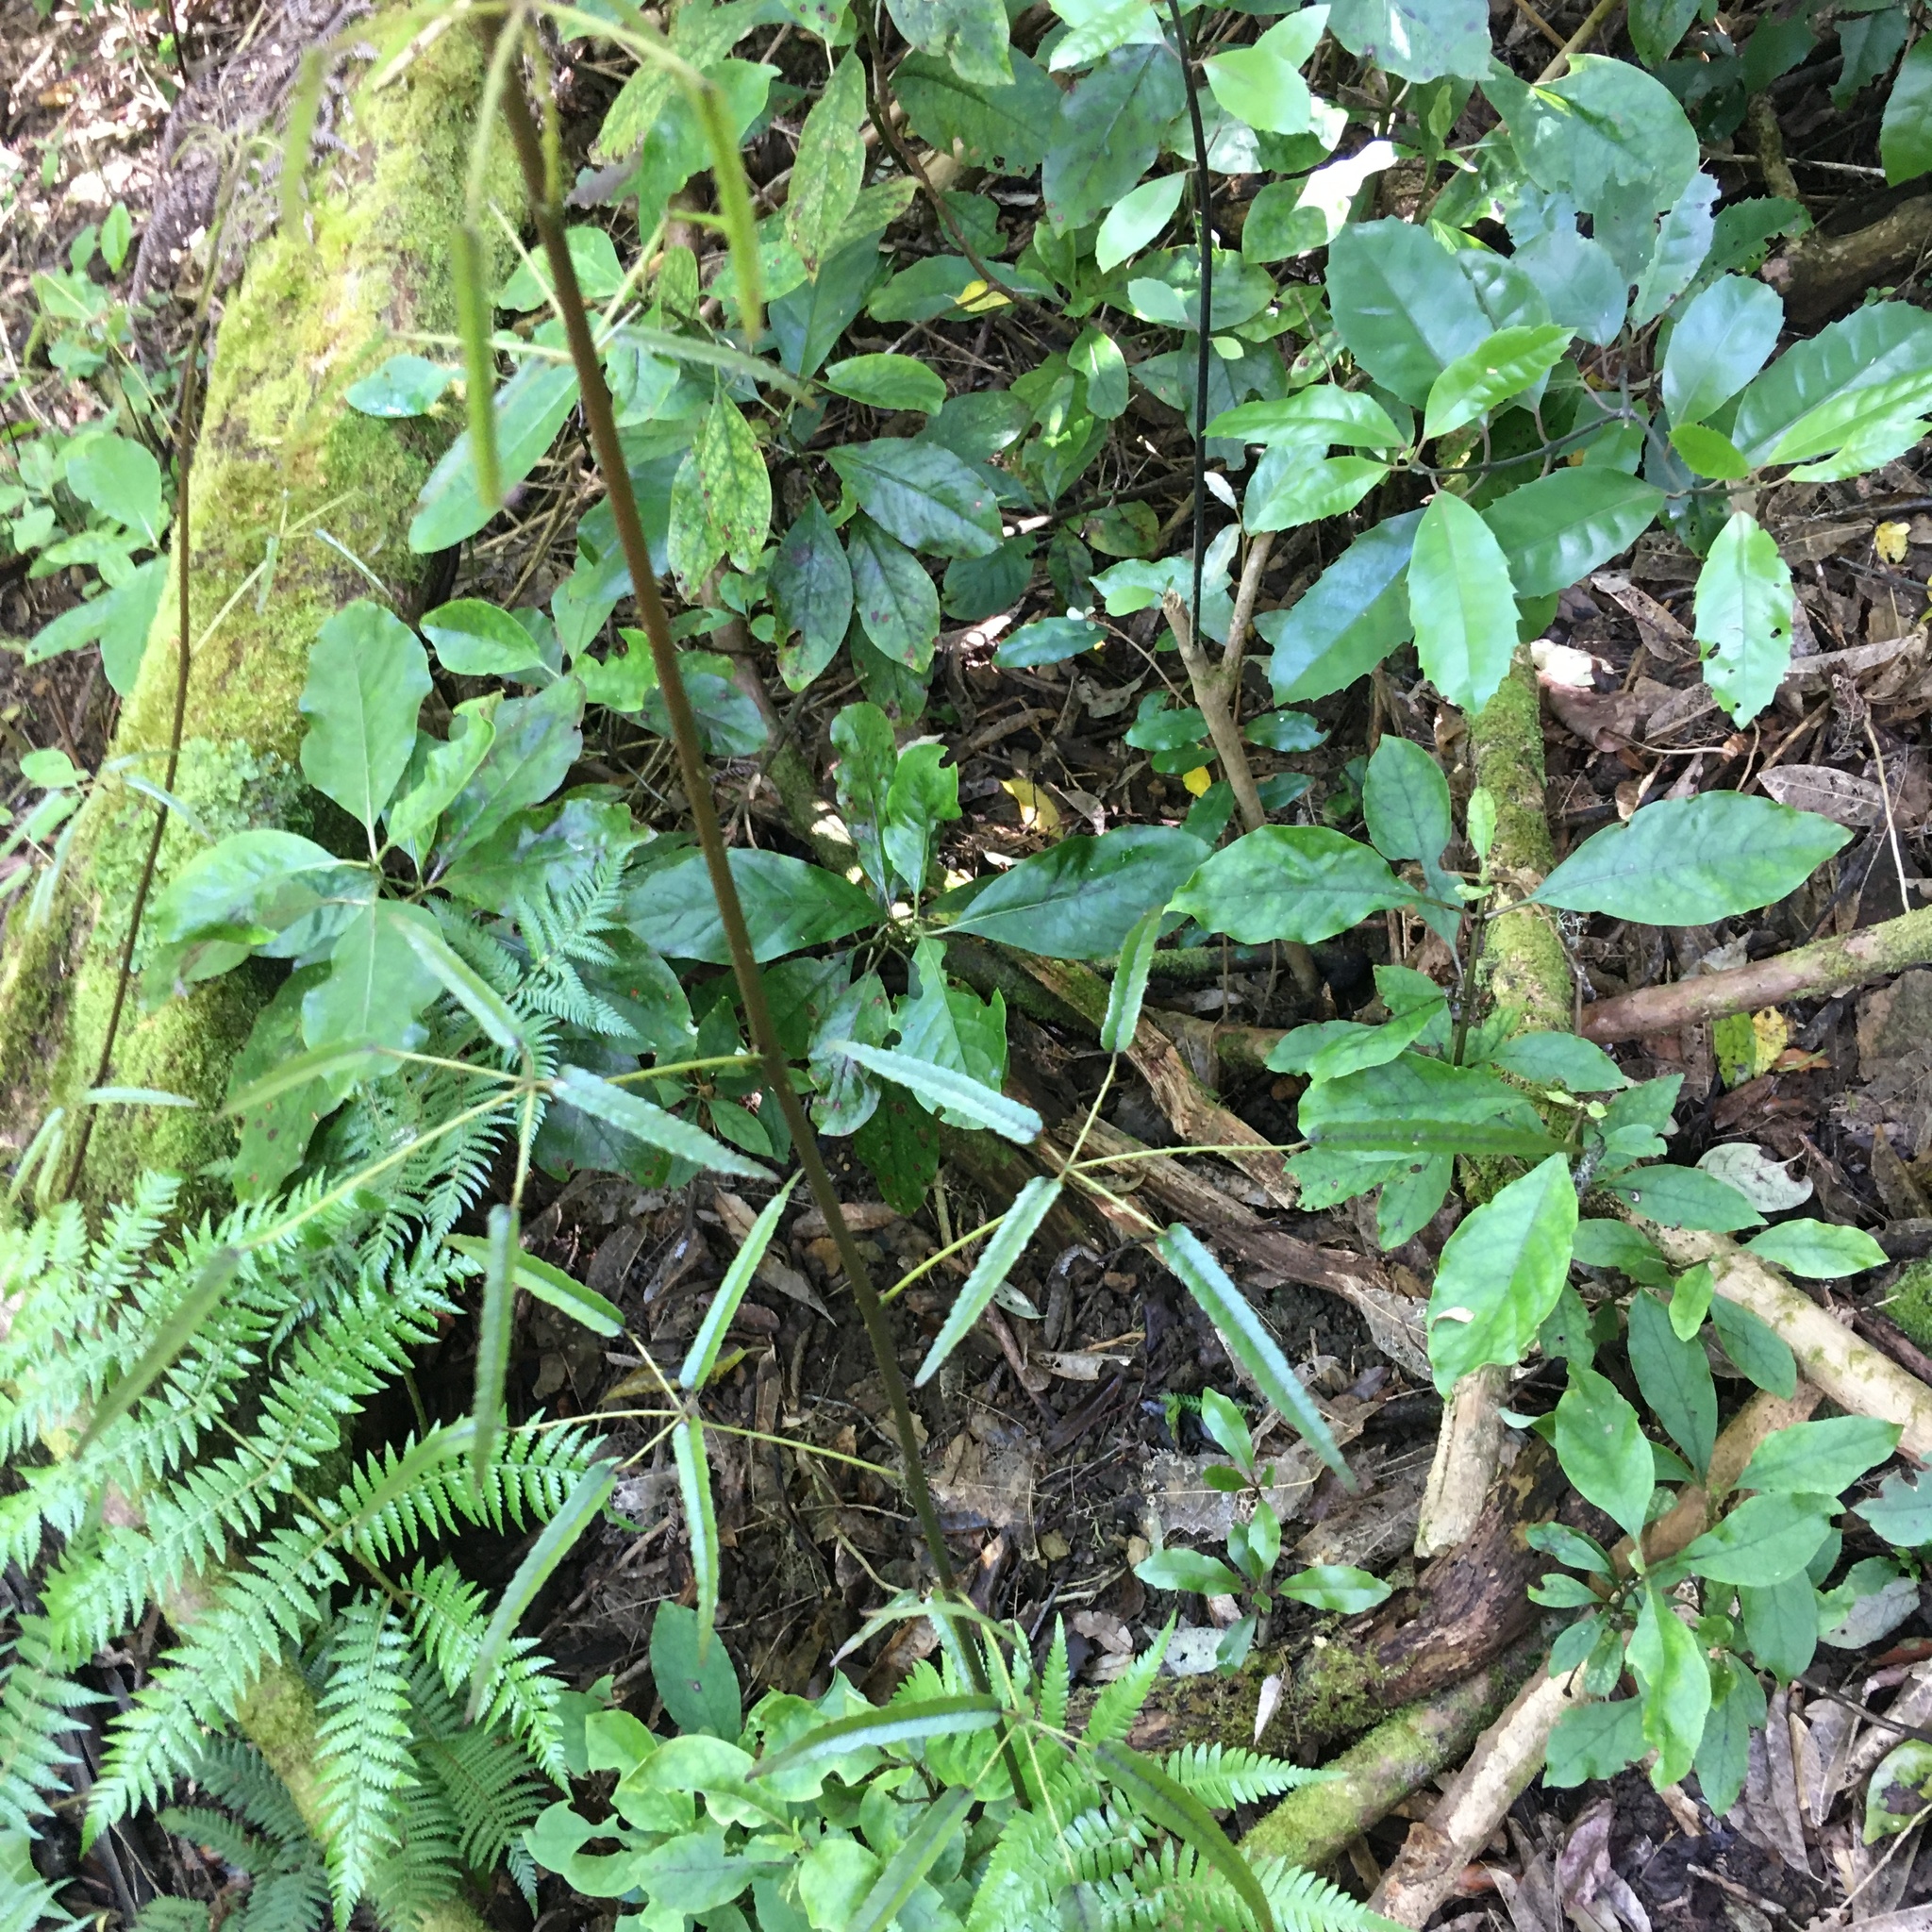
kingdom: Plantae
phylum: Tracheophyta
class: Magnoliopsida
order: Rosales
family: Rosaceae
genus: Rubus
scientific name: Rubus cissoides
